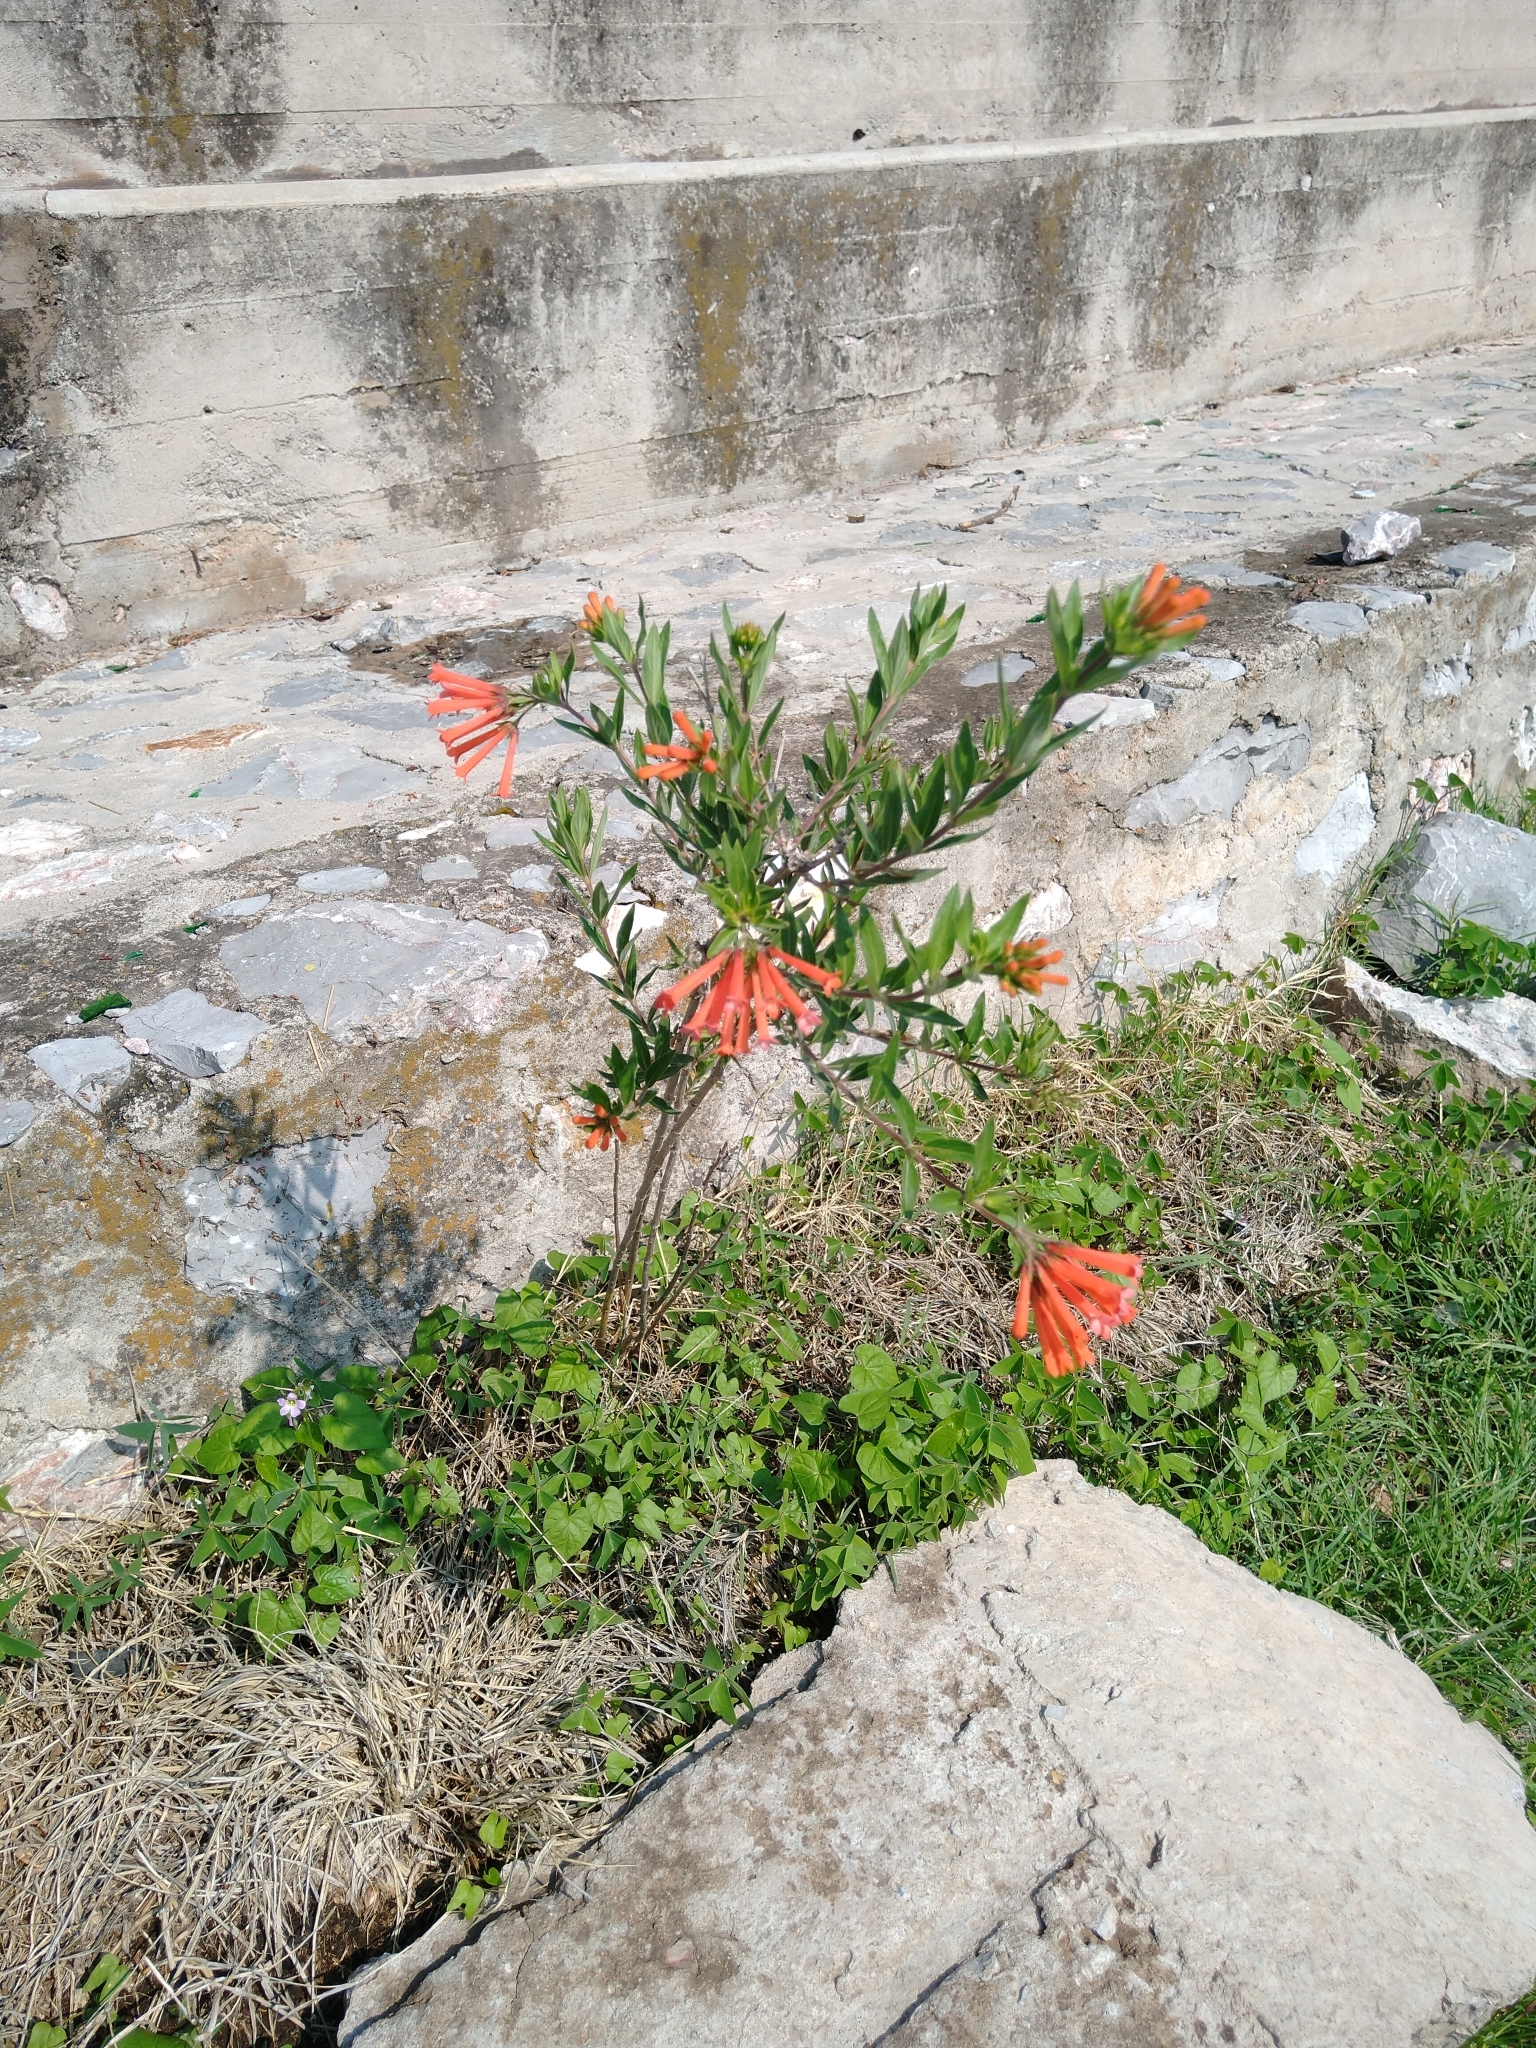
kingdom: Plantae
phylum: Tracheophyta
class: Magnoliopsida
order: Gentianales
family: Rubiaceae
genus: Bouvardia
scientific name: Bouvardia ternifolia
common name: Scarlet bouvardia
